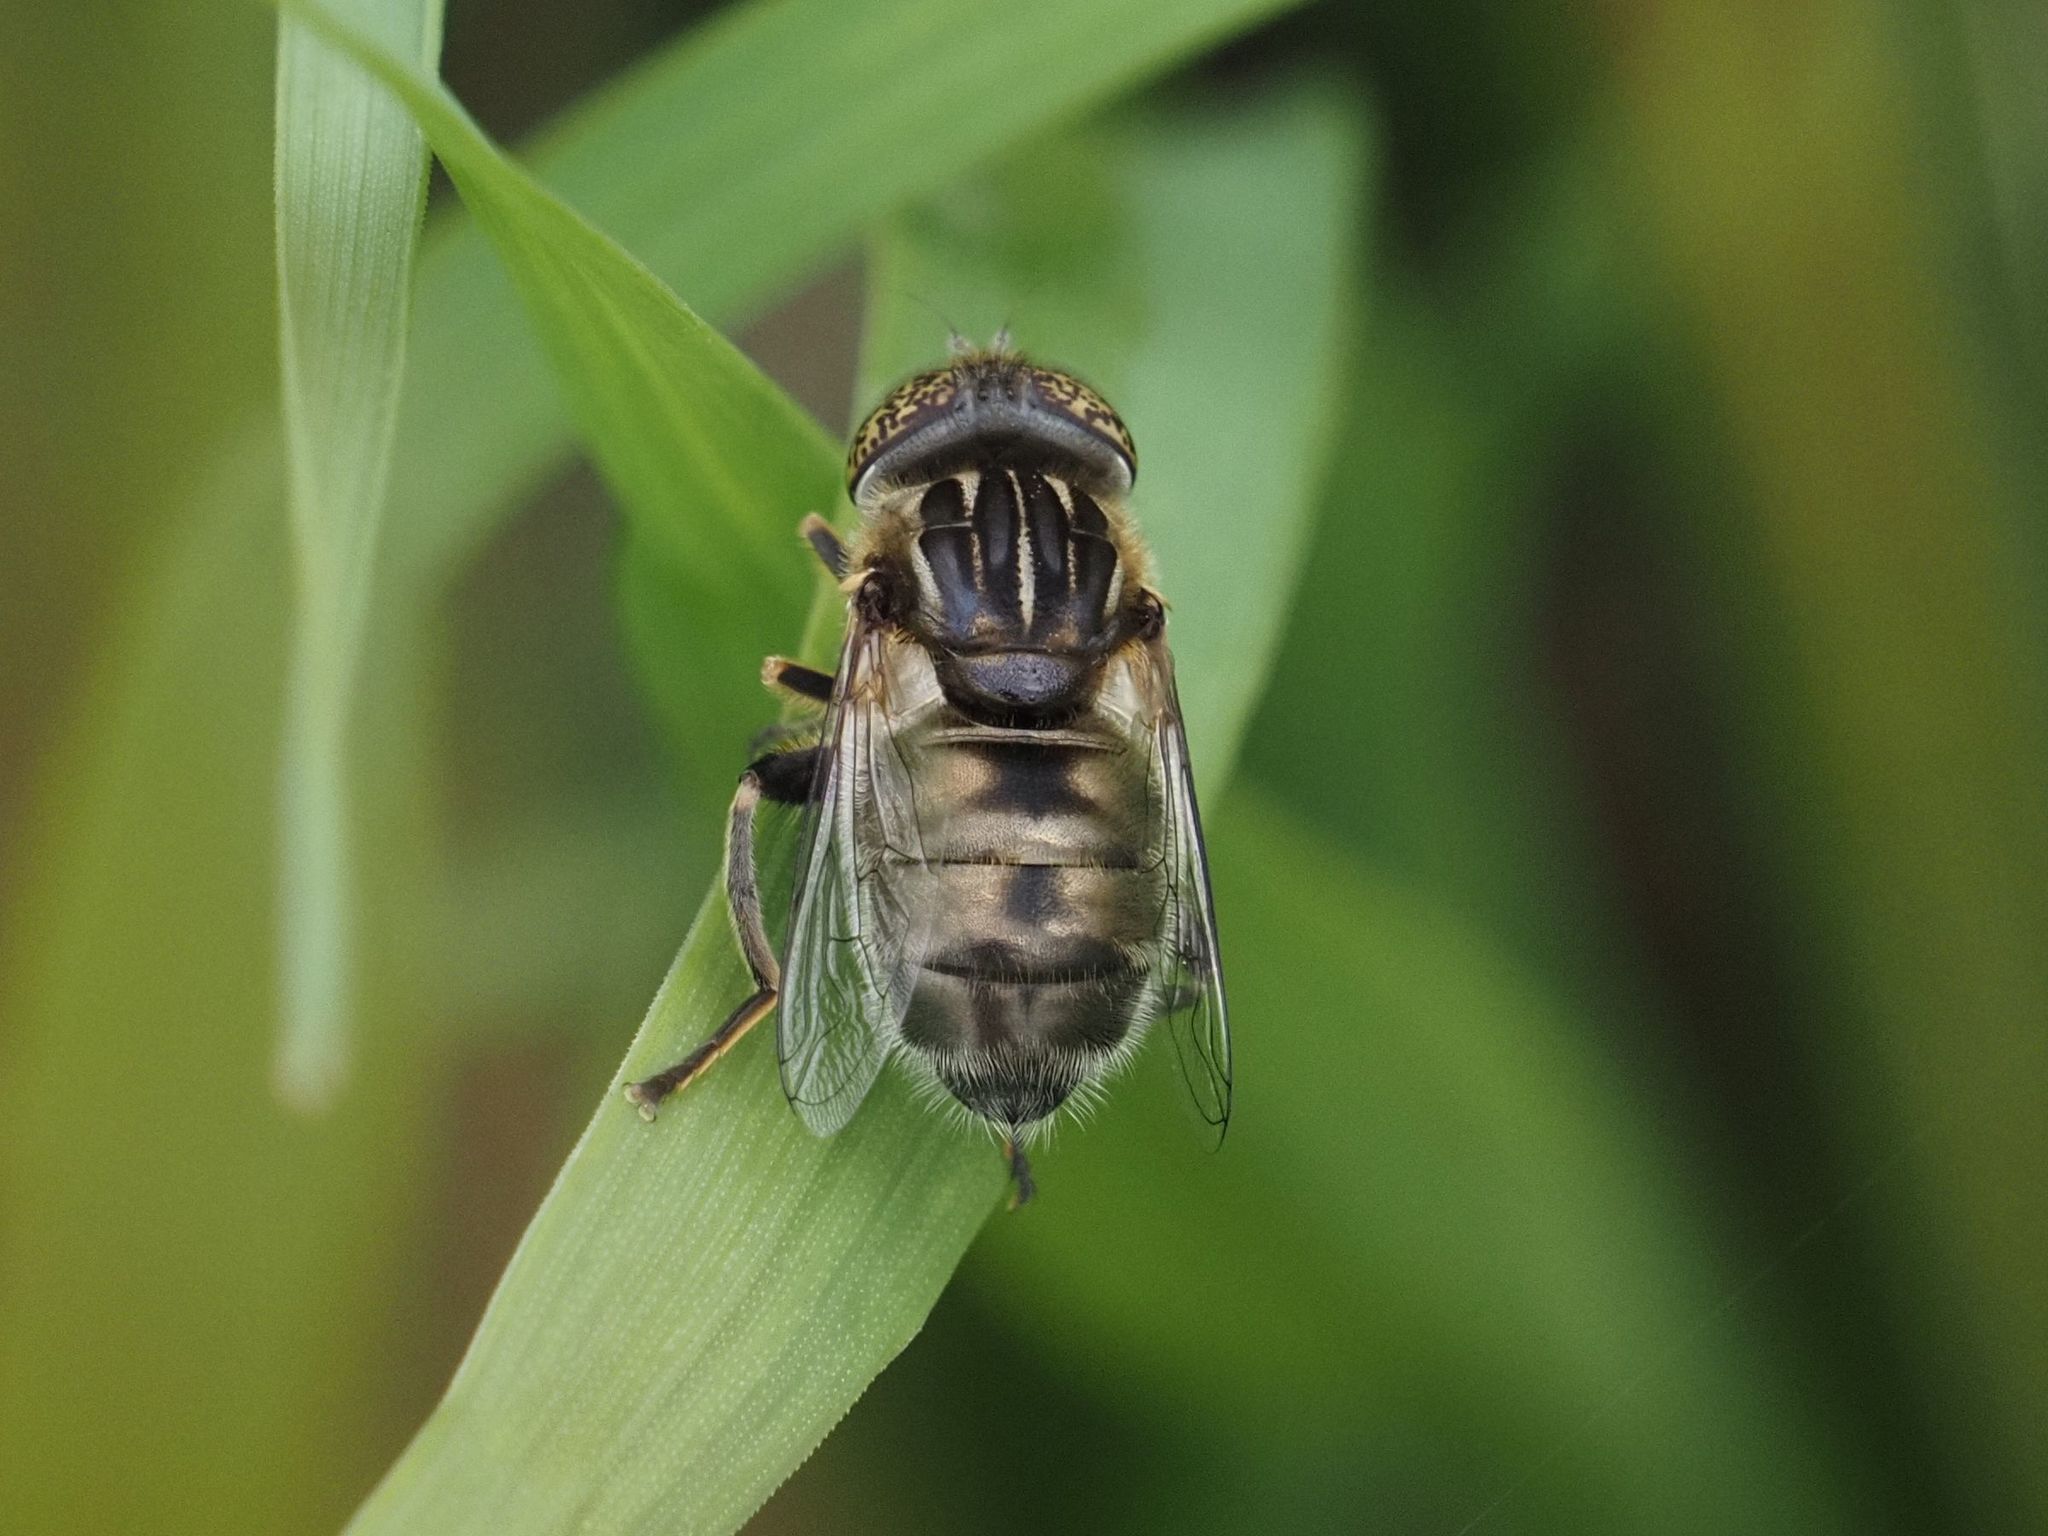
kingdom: Animalia
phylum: Arthropoda
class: Insecta
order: Diptera
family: Syrphidae
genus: Eristalinus
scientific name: Eristalinus sepulchralis
